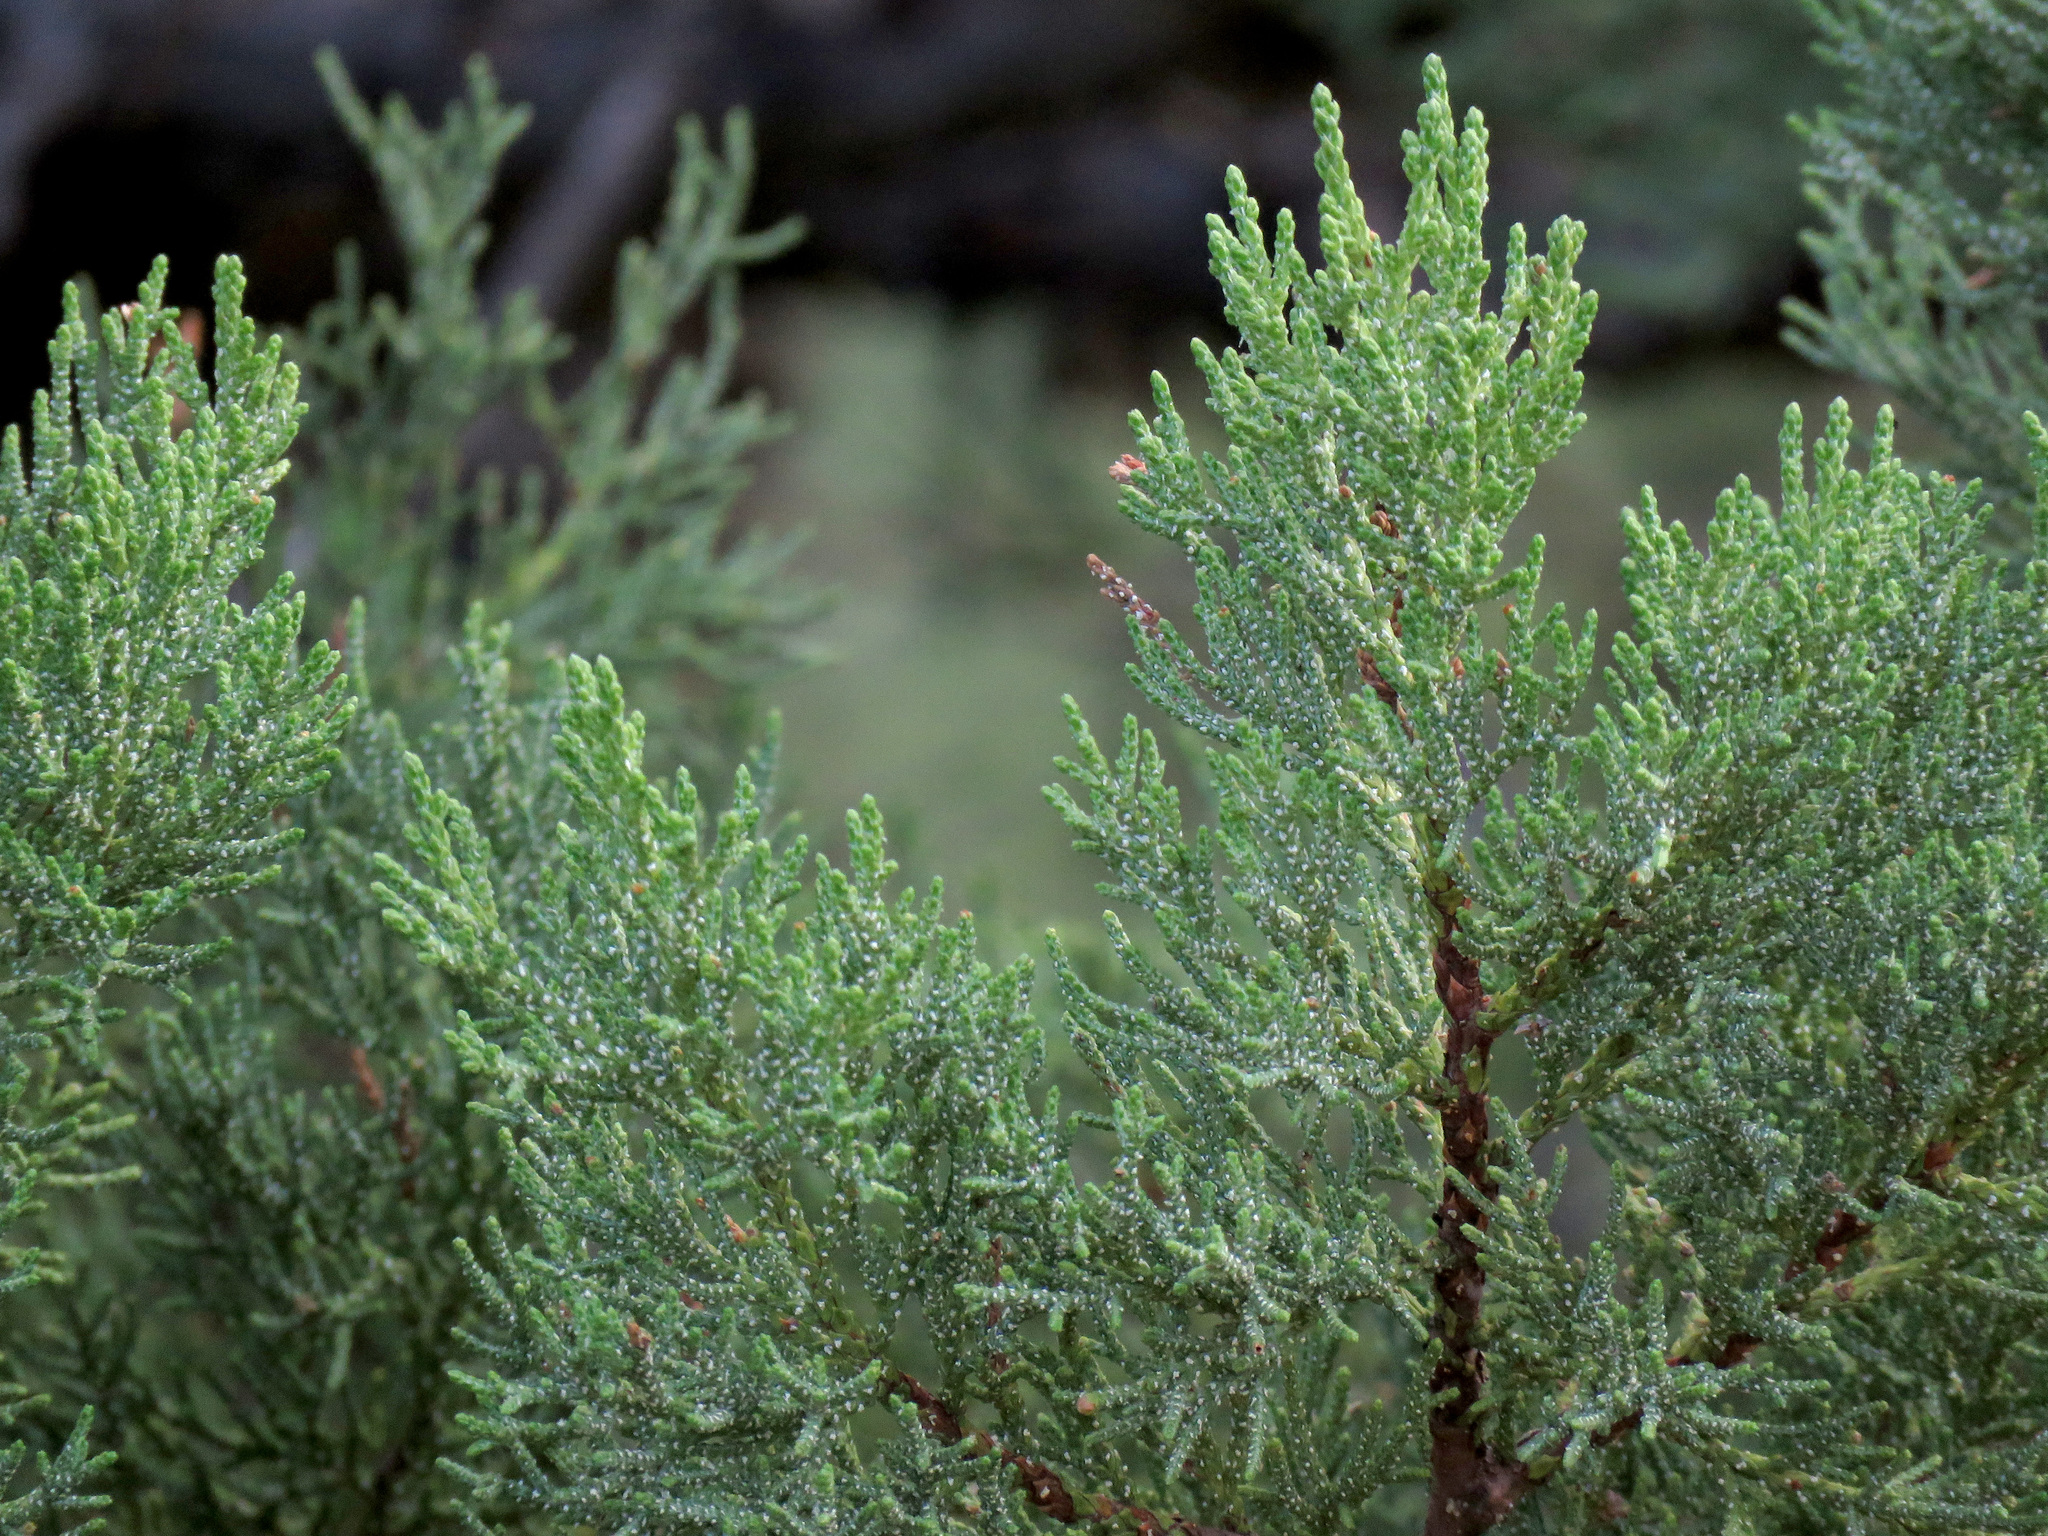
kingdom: Plantae
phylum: Tracheophyta
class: Pinopsida
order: Pinales
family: Cupressaceae
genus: Juniperus
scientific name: Juniperus deppeana
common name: Alligator juniper
